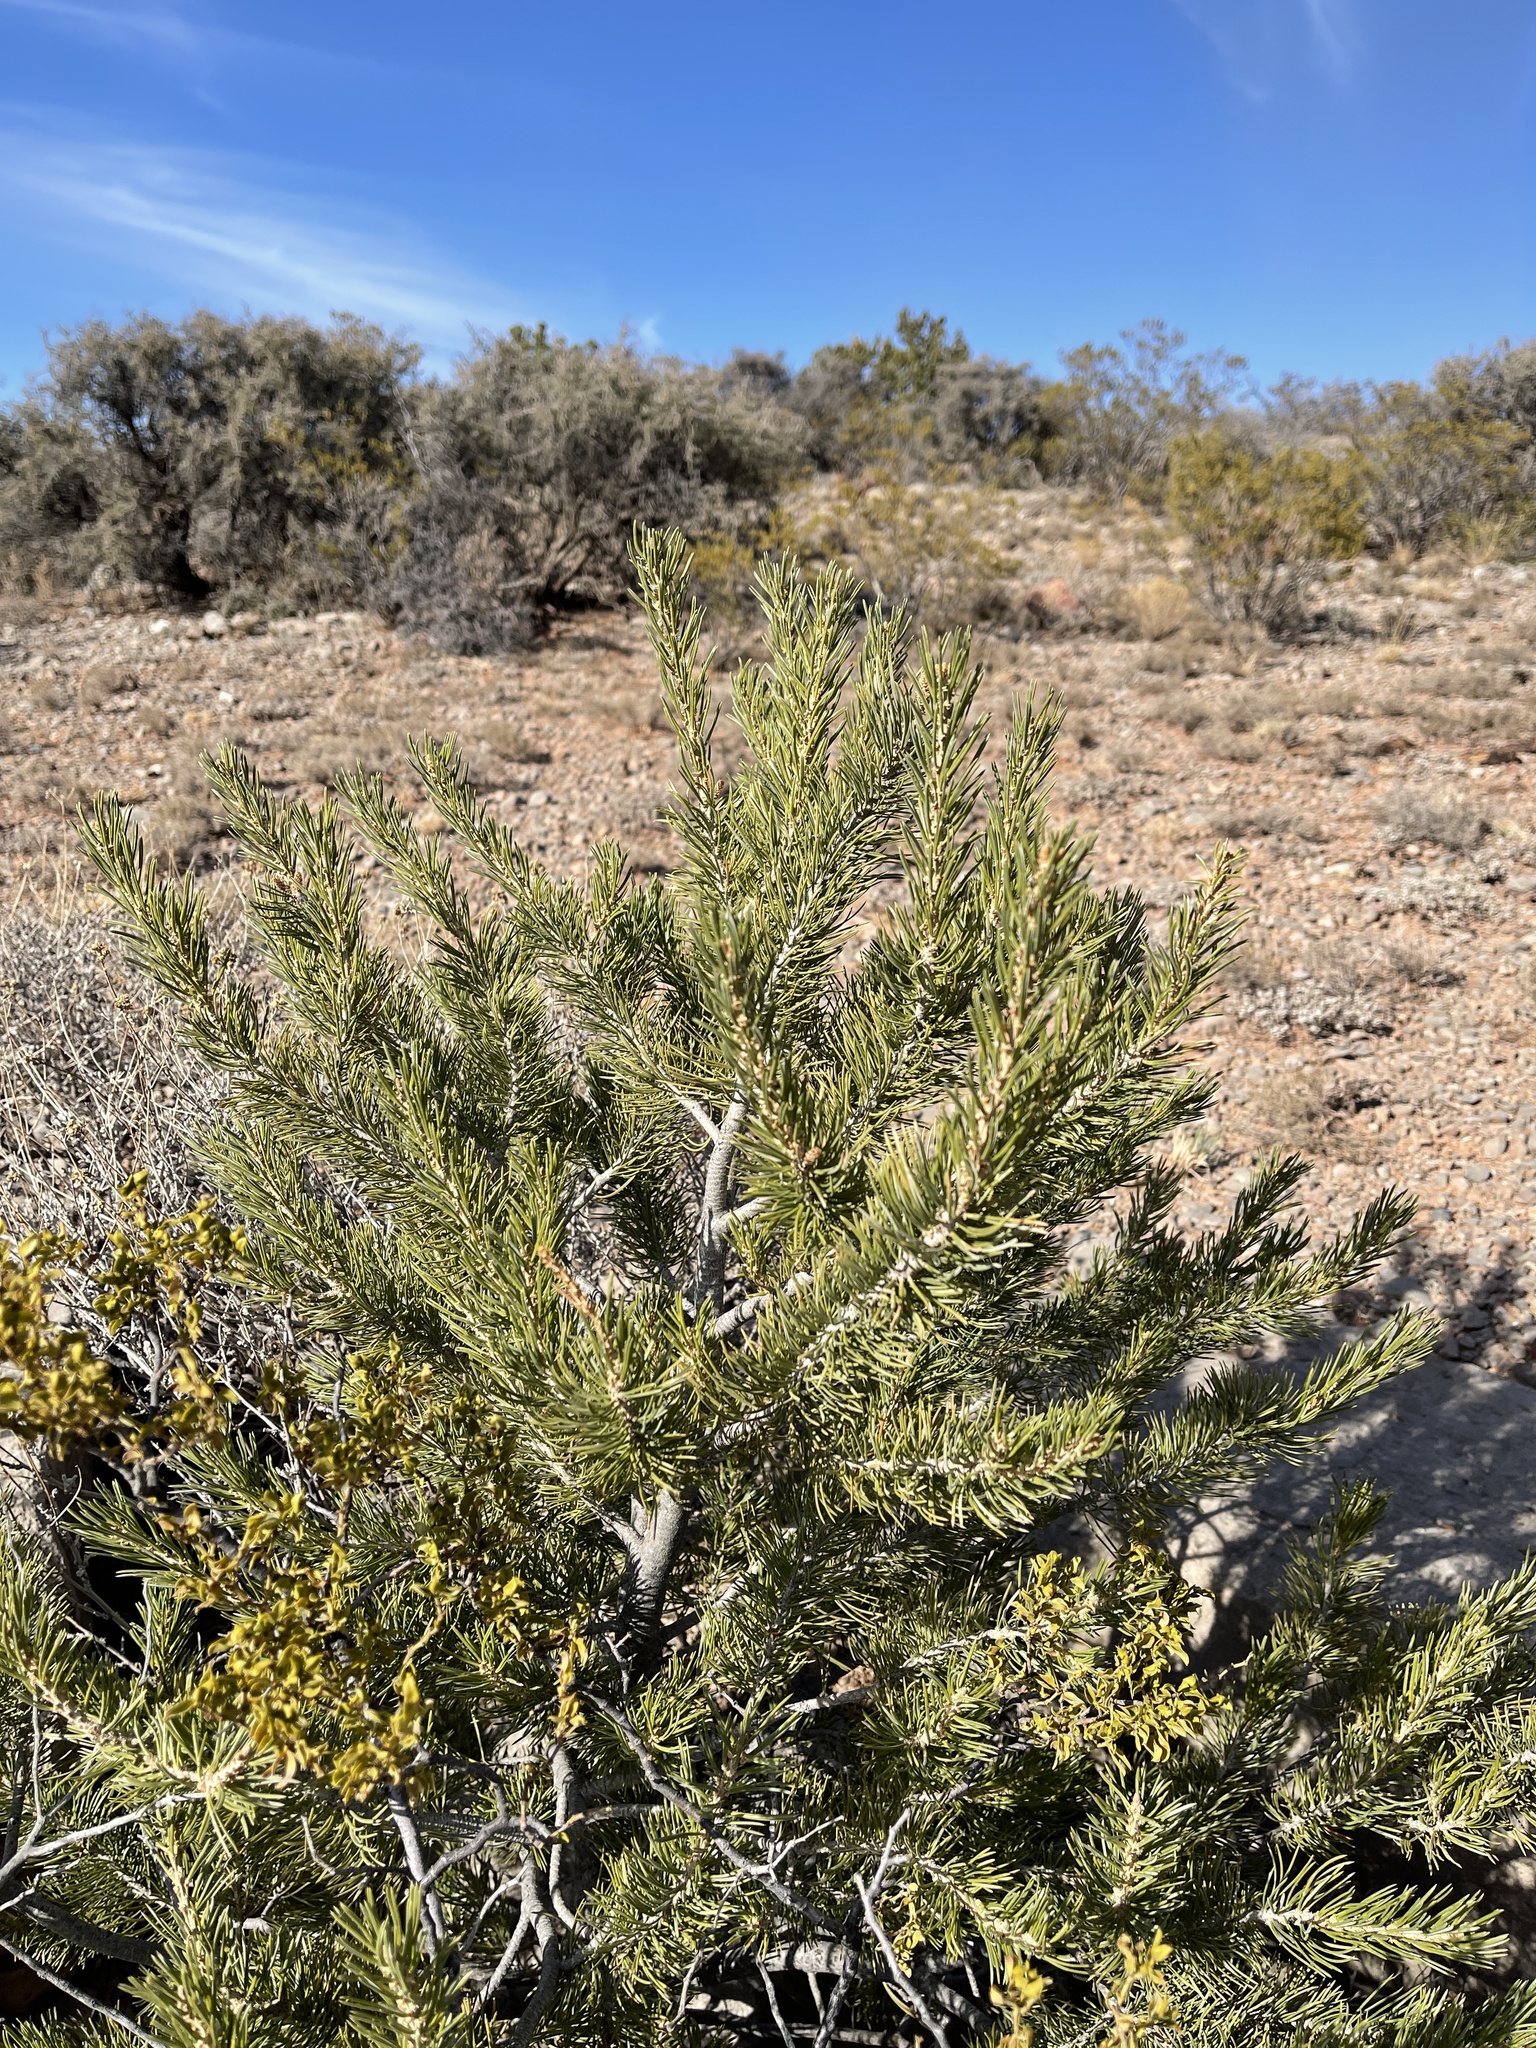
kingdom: Plantae
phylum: Tracheophyta
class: Pinopsida
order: Pinales
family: Pinaceae
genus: Pinus
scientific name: Pinus edulis
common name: Colorado pinyon
